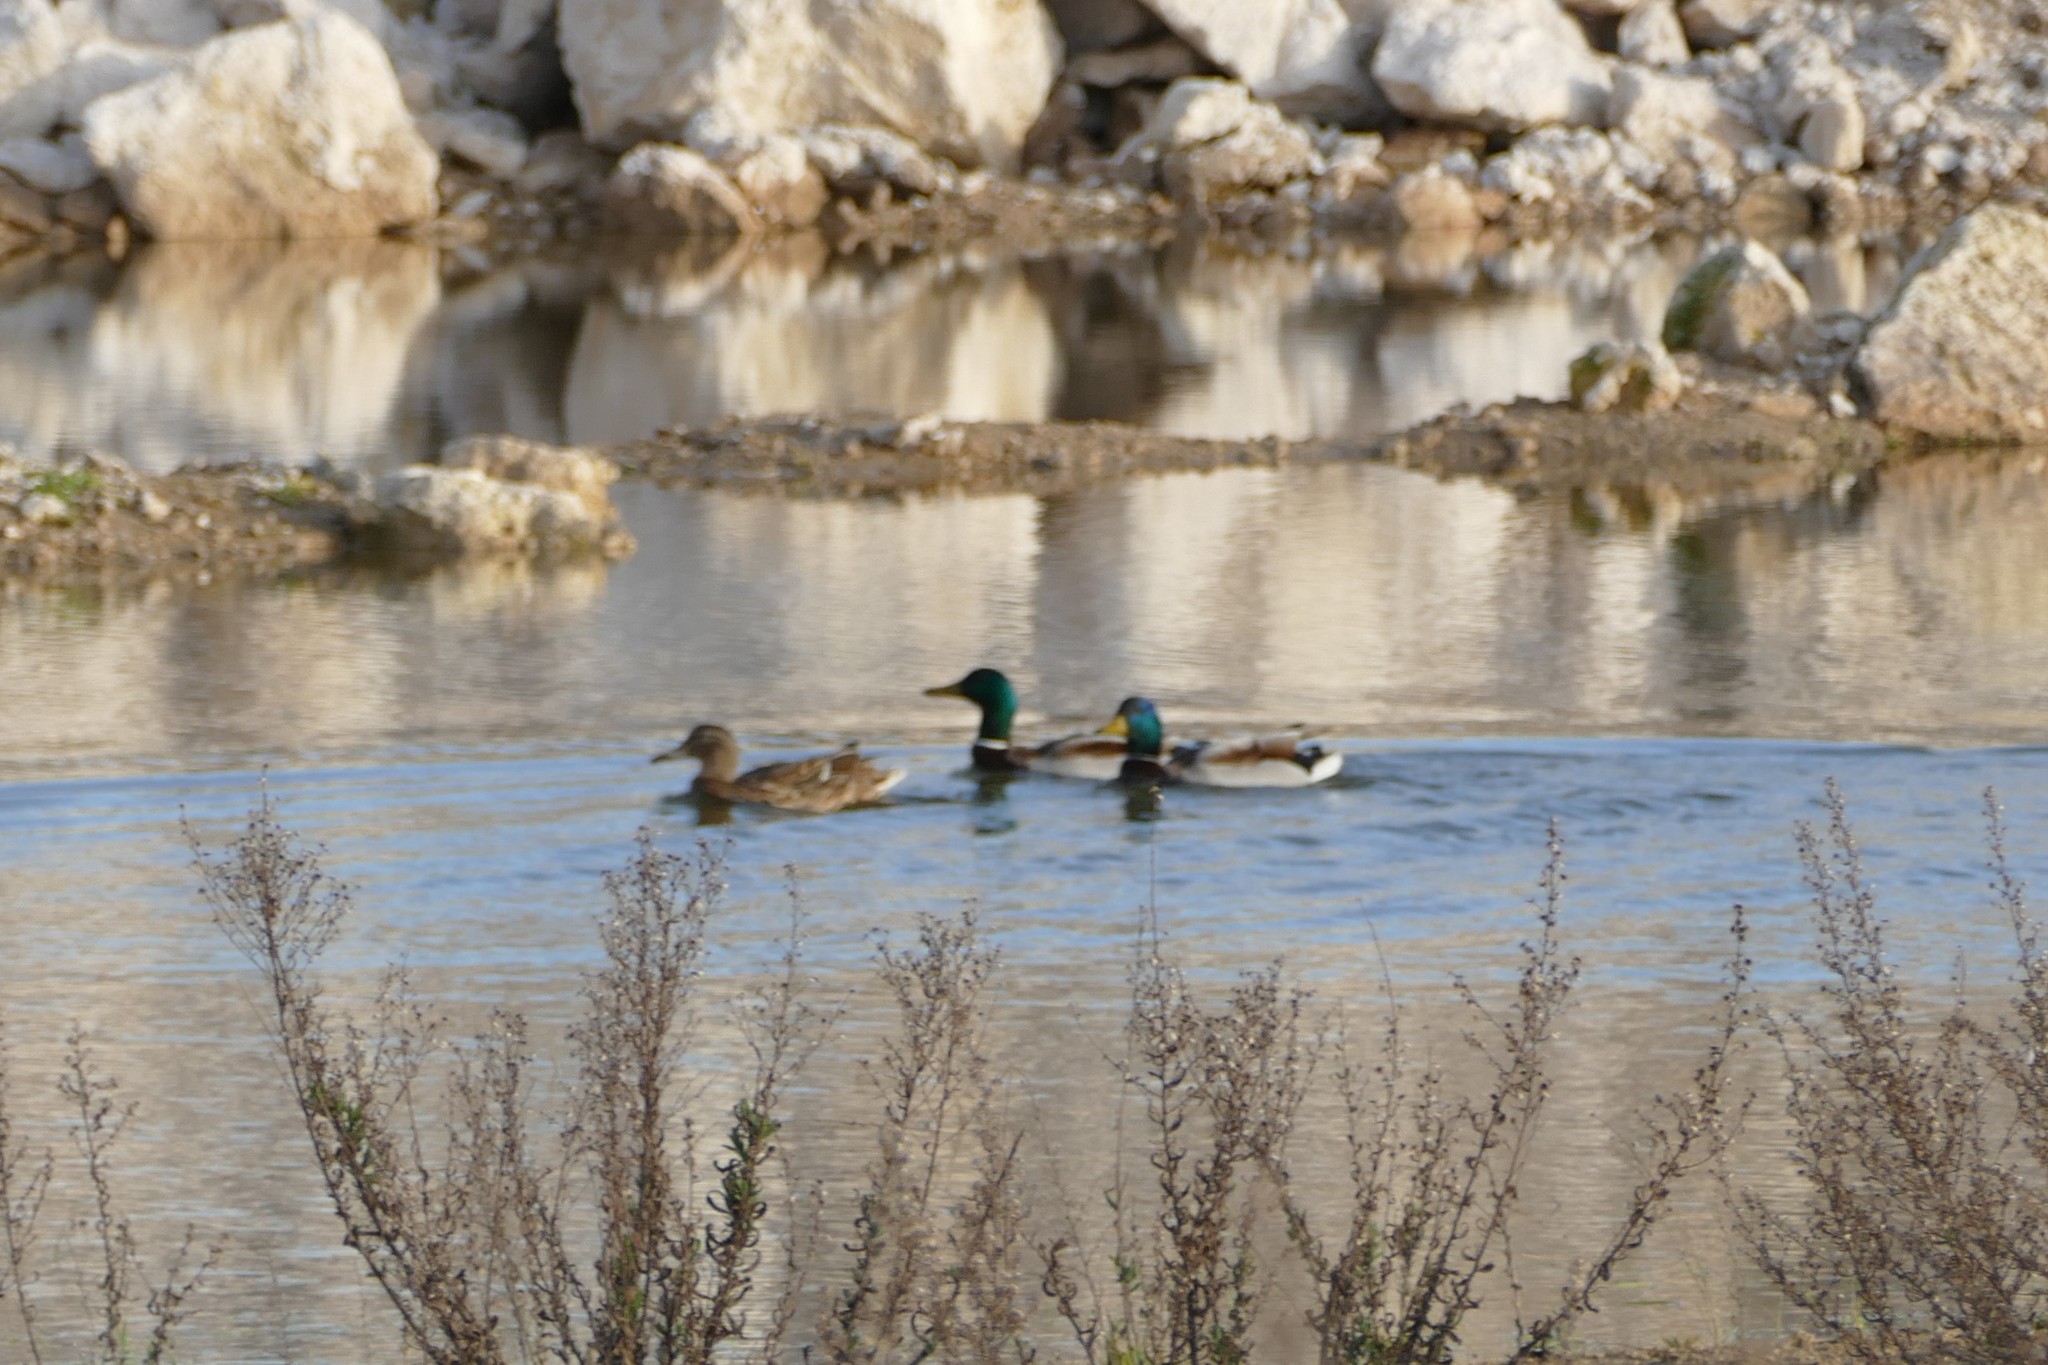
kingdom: Animalia
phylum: Chordata
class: Aves
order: Anseriformes
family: Anatidae
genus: Anas
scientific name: Anas platyrhynchos
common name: Mallard
